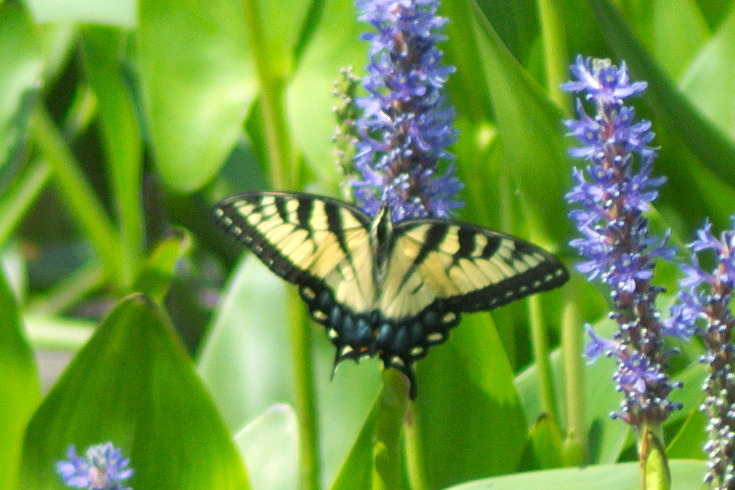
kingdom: Animalia
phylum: Arthropoda
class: Insecta
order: Lepidoptera
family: Papilionidae
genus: Papilio
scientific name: Papilio glaucus
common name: Tiger swallowtail
